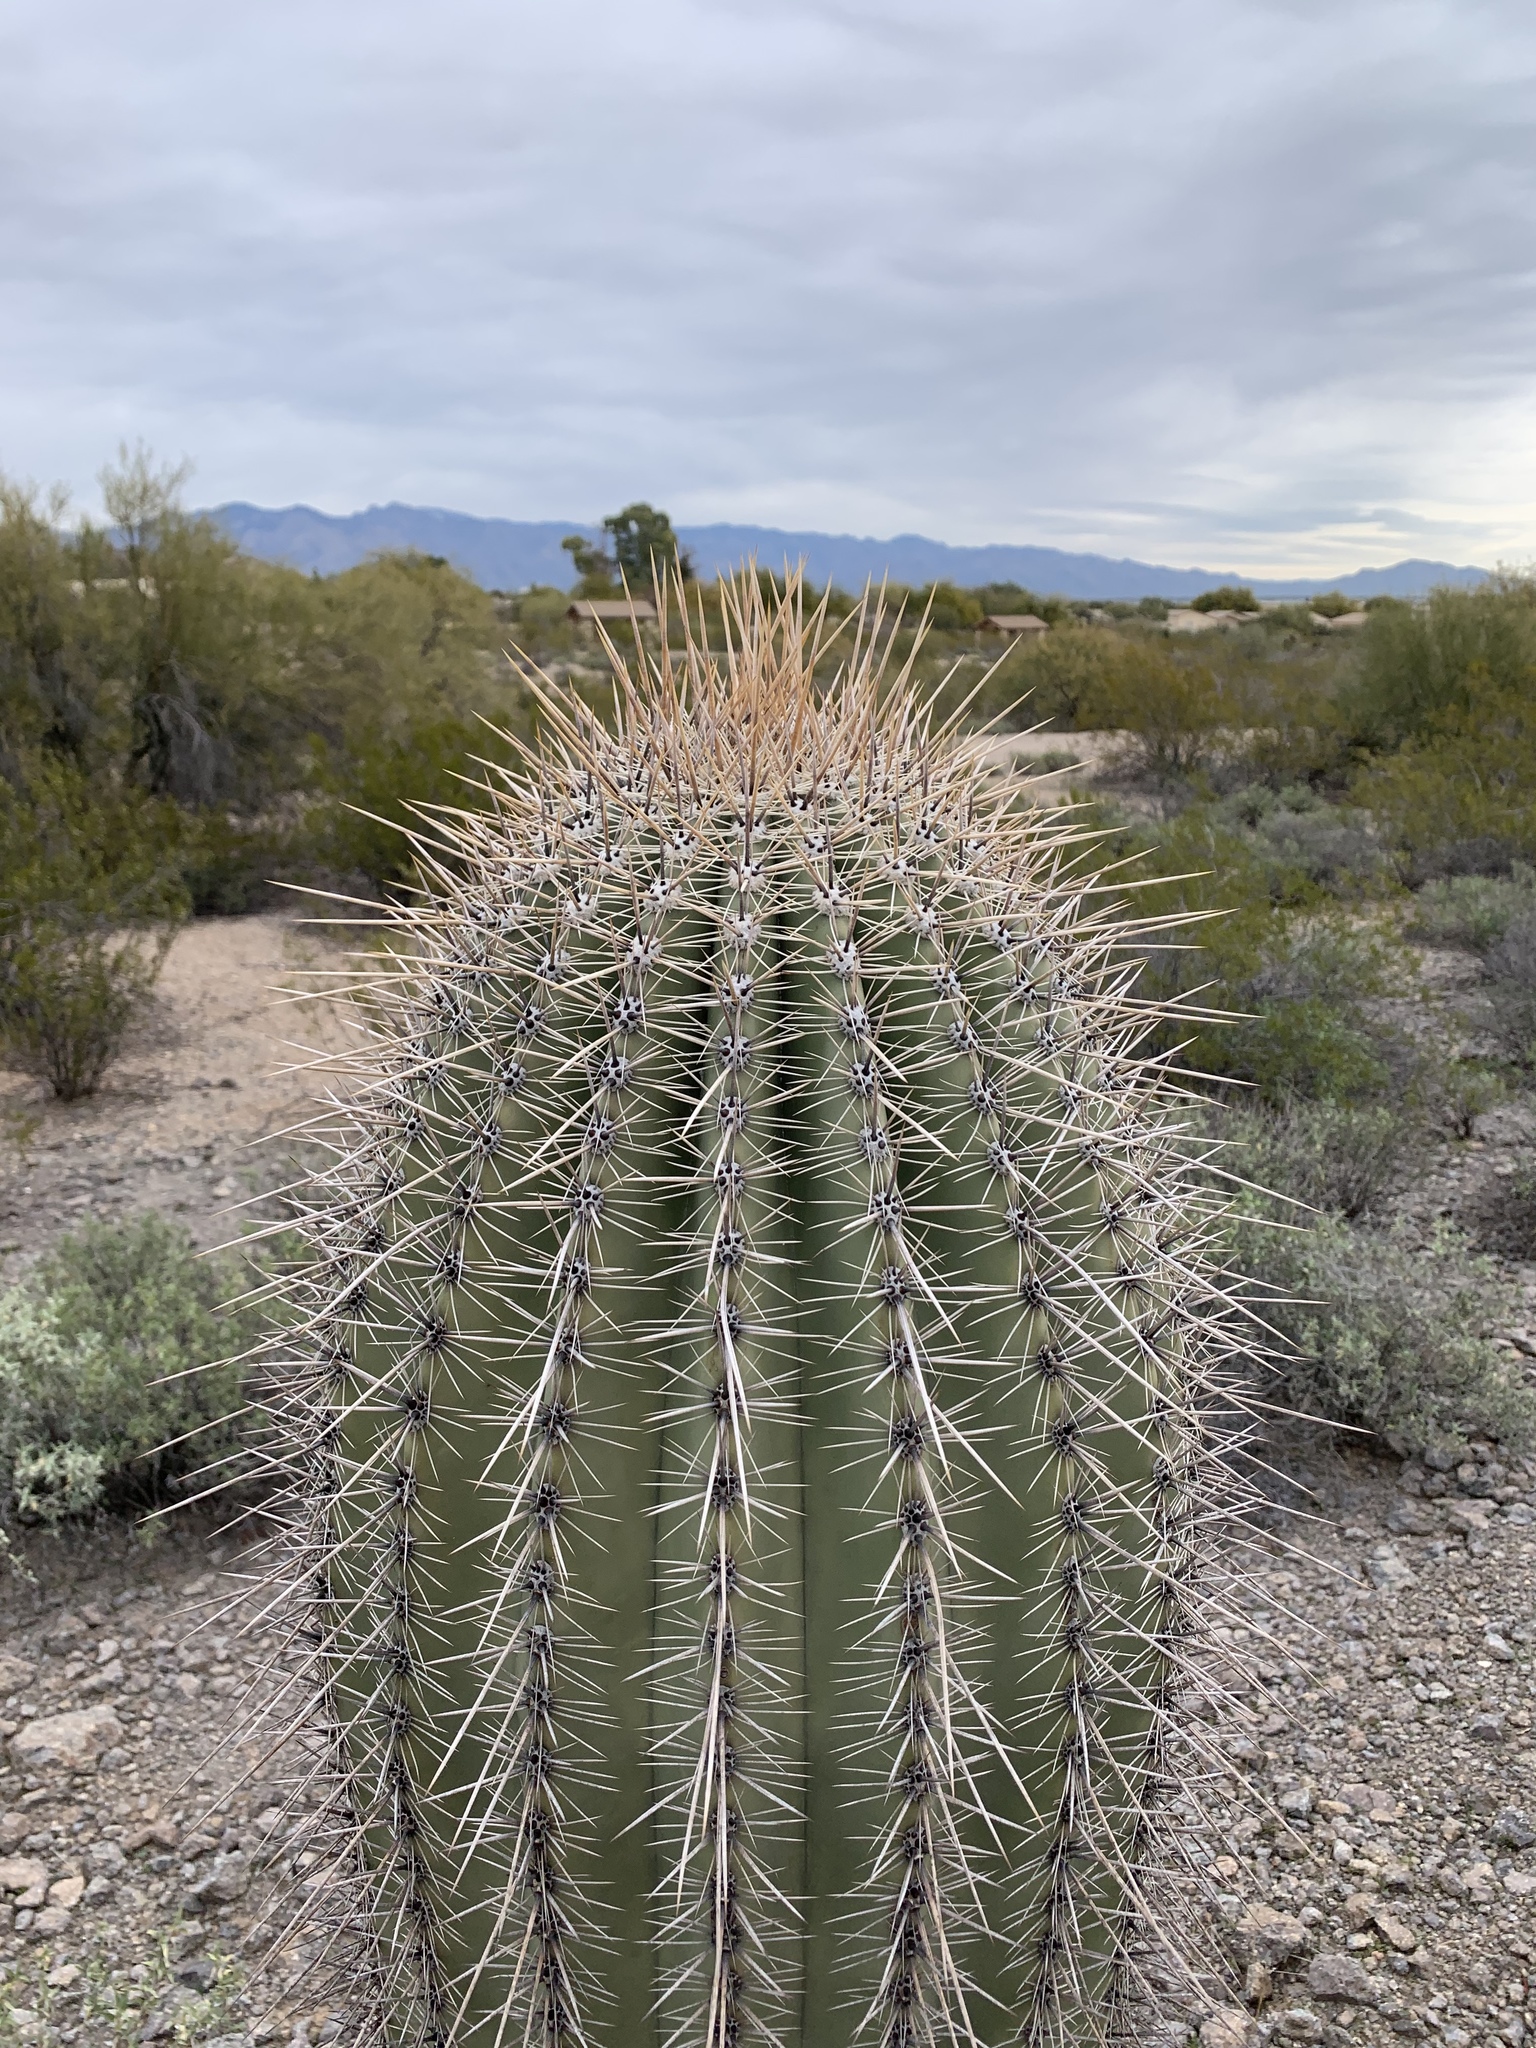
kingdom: Plantae
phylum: Tracheophyta
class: Magnoliopsida
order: Caryophyllales
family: Cactaceae
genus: Carnegiea
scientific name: Carnegiea gigantea
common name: Saguaro
